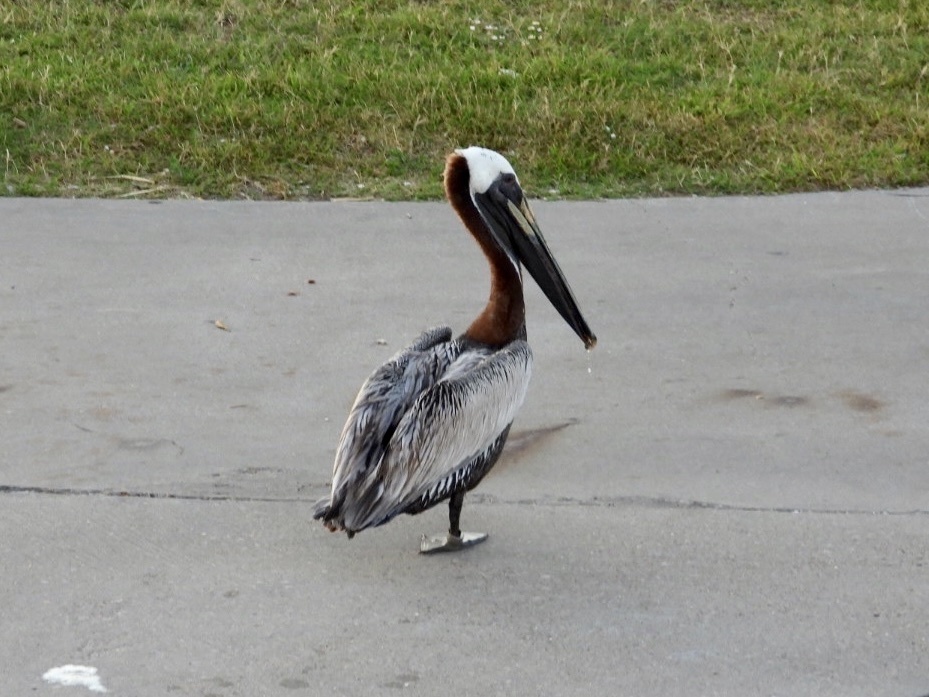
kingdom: Animalia
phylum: Chordata
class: Aves
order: Pelecaniformes
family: Pelecanidae
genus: Pelecanus
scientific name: Pelecanus occidentalis
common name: Brown pelican
